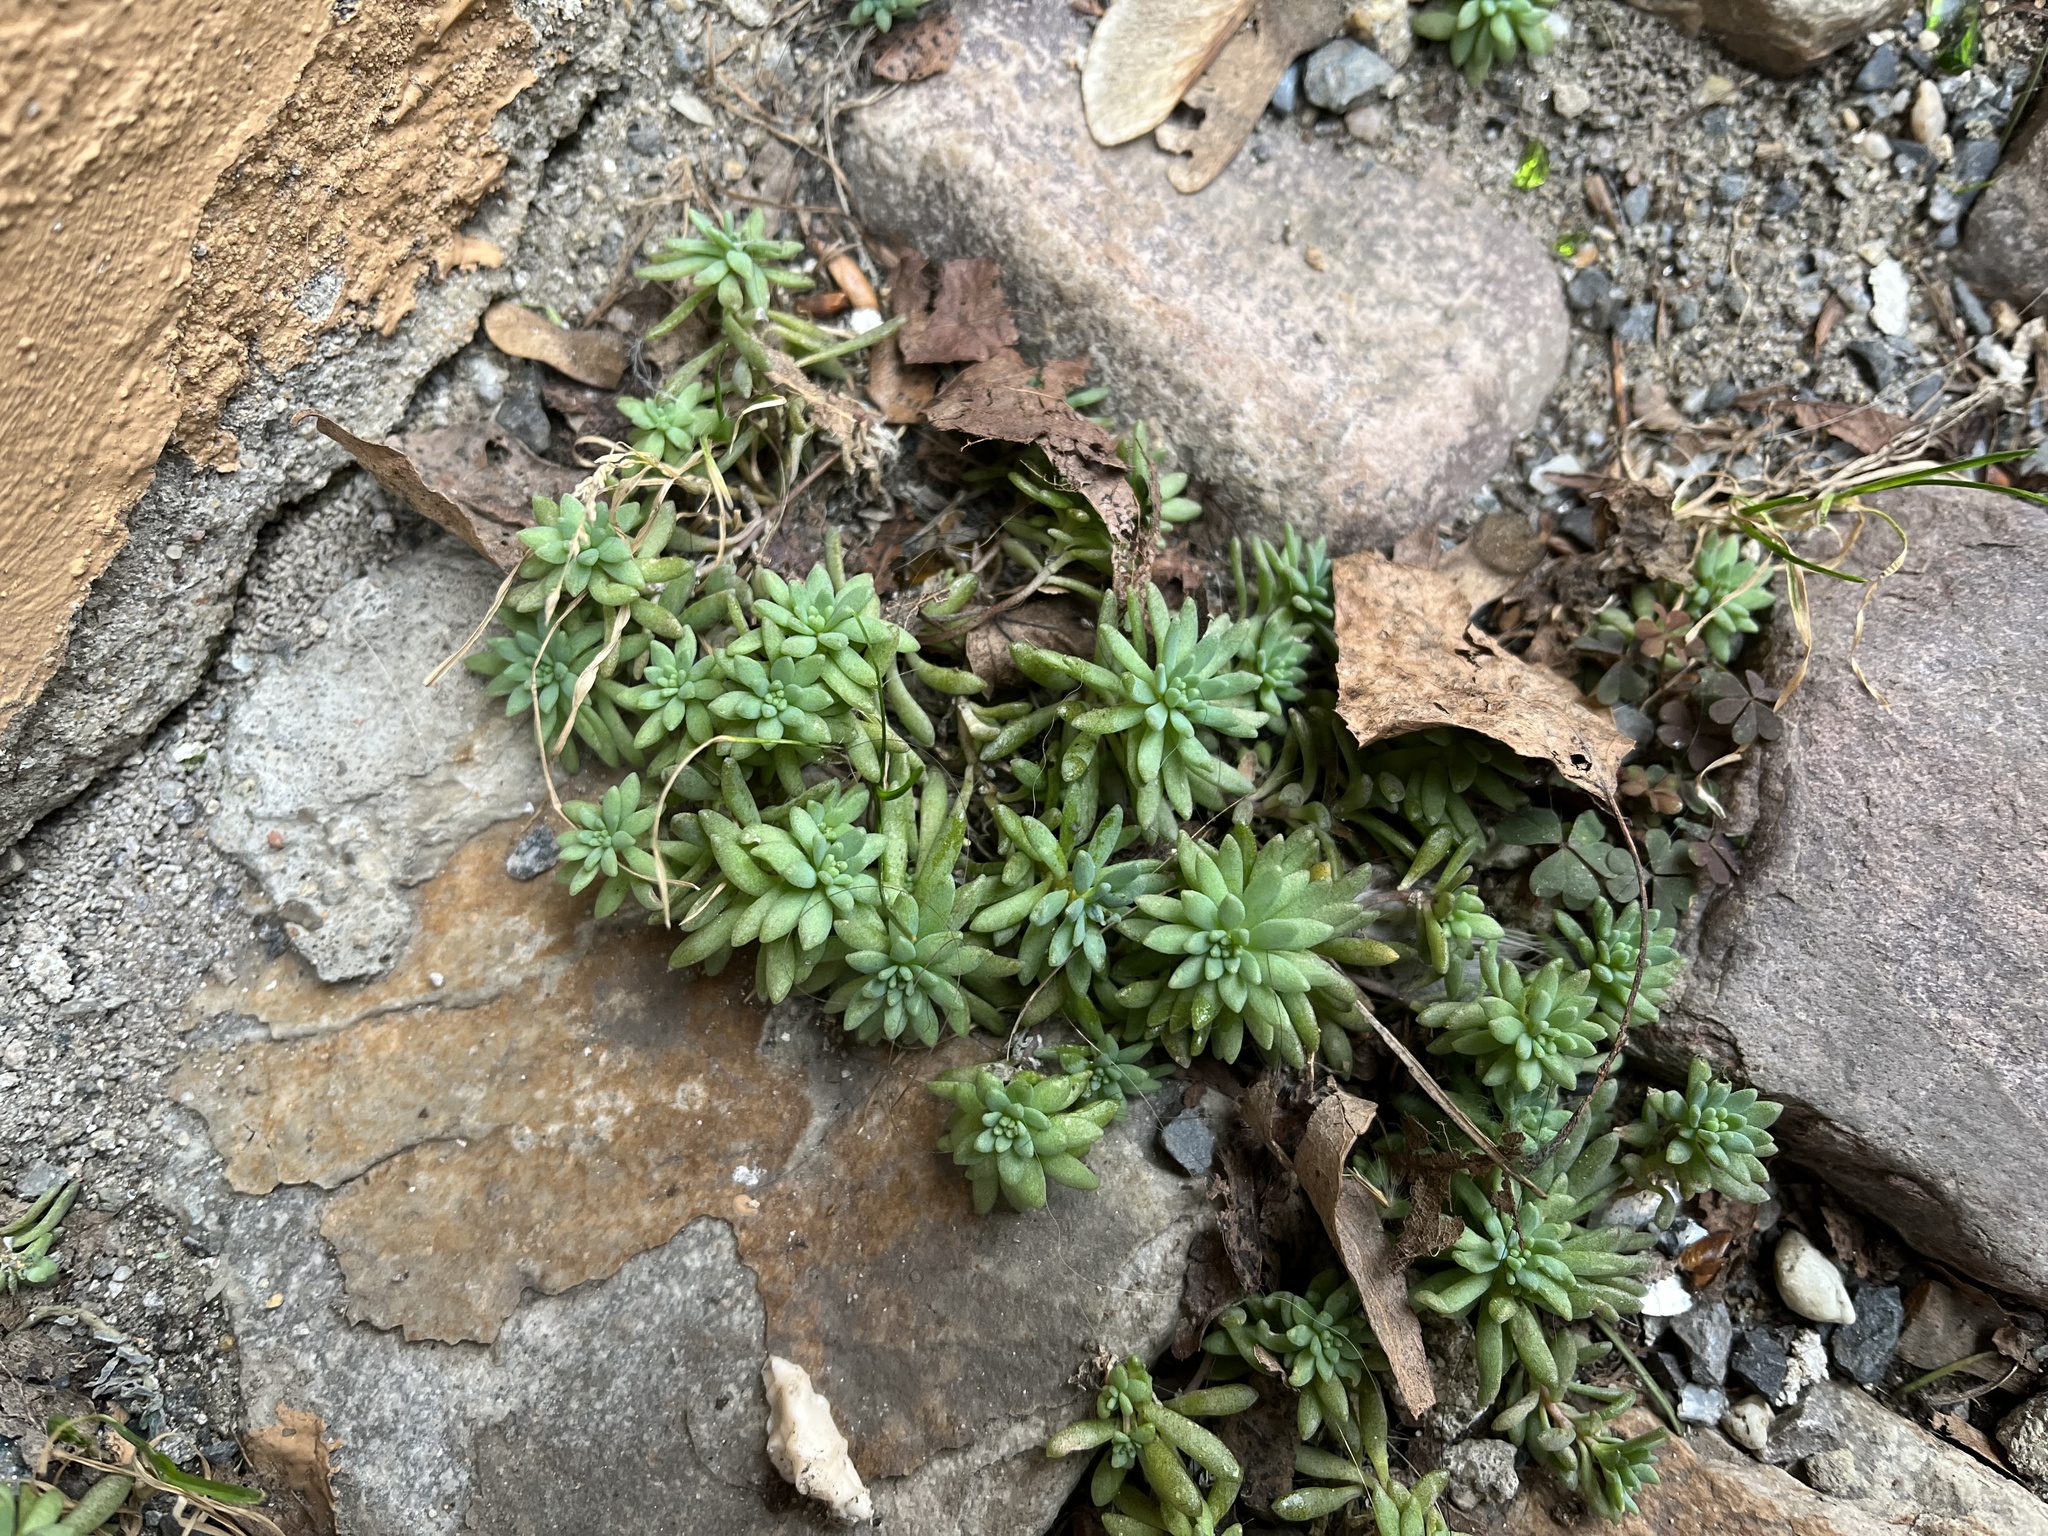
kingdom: Plantae
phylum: Tracheophyta
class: Magnoliopsida
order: Saxifragales
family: Crassulaceae
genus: Sedum
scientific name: Sedum hispanicum
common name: Spanish stonecrop
